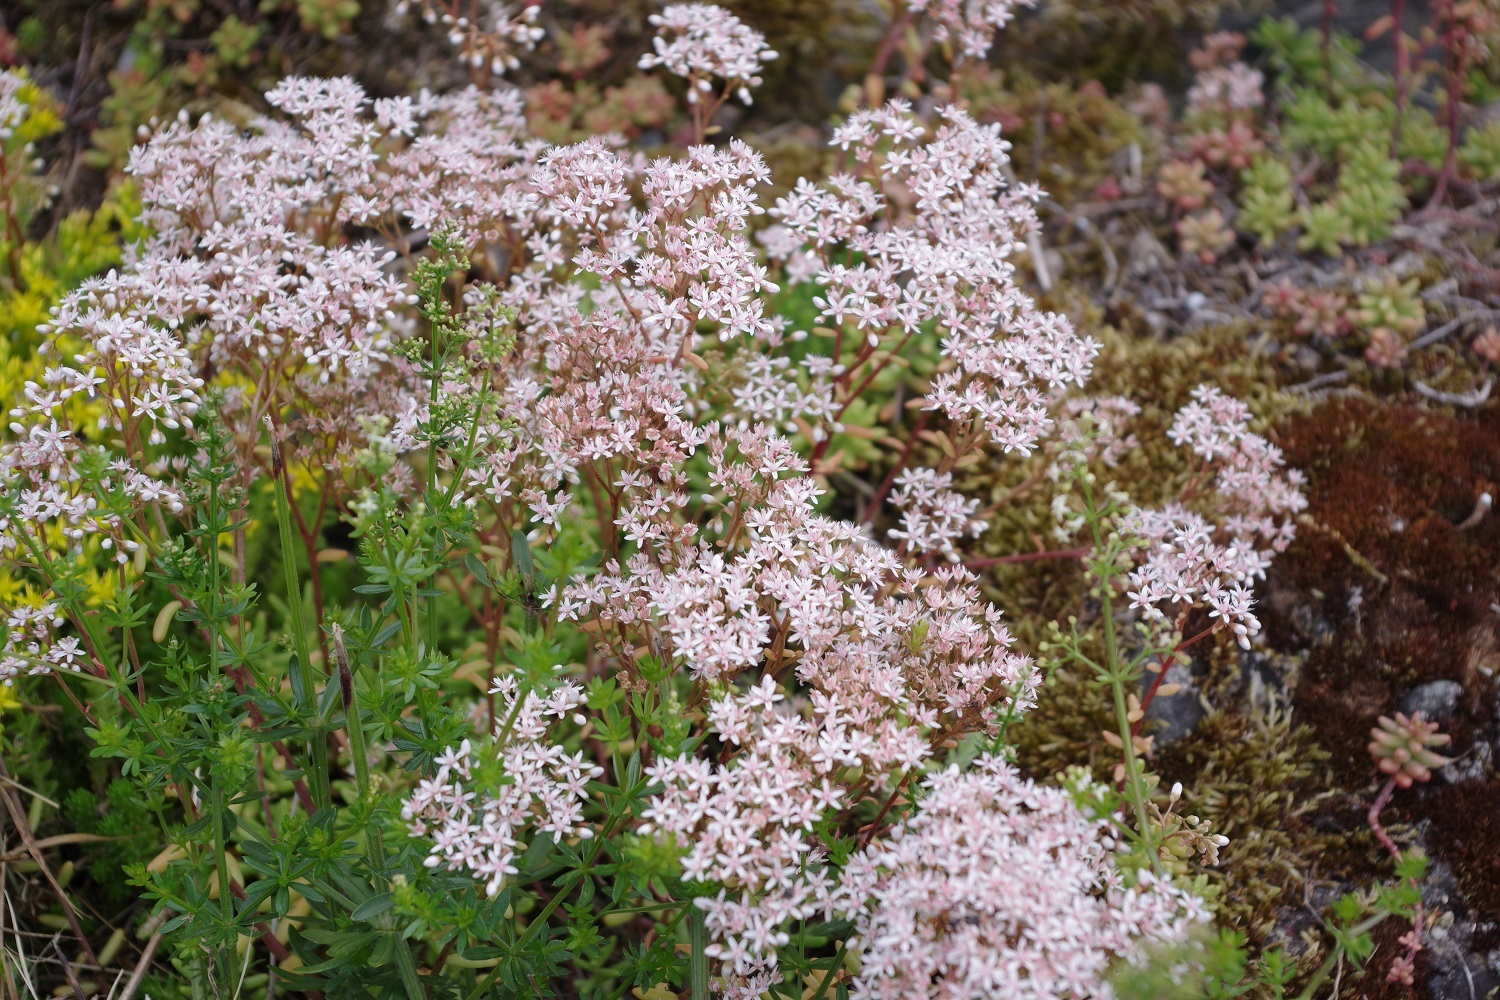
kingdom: Plantae
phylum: Tracheophyta
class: Magnoliopsida
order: Saxifragales
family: Crassulaceae
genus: Sedum
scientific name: Sedum album
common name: White stonecrop
